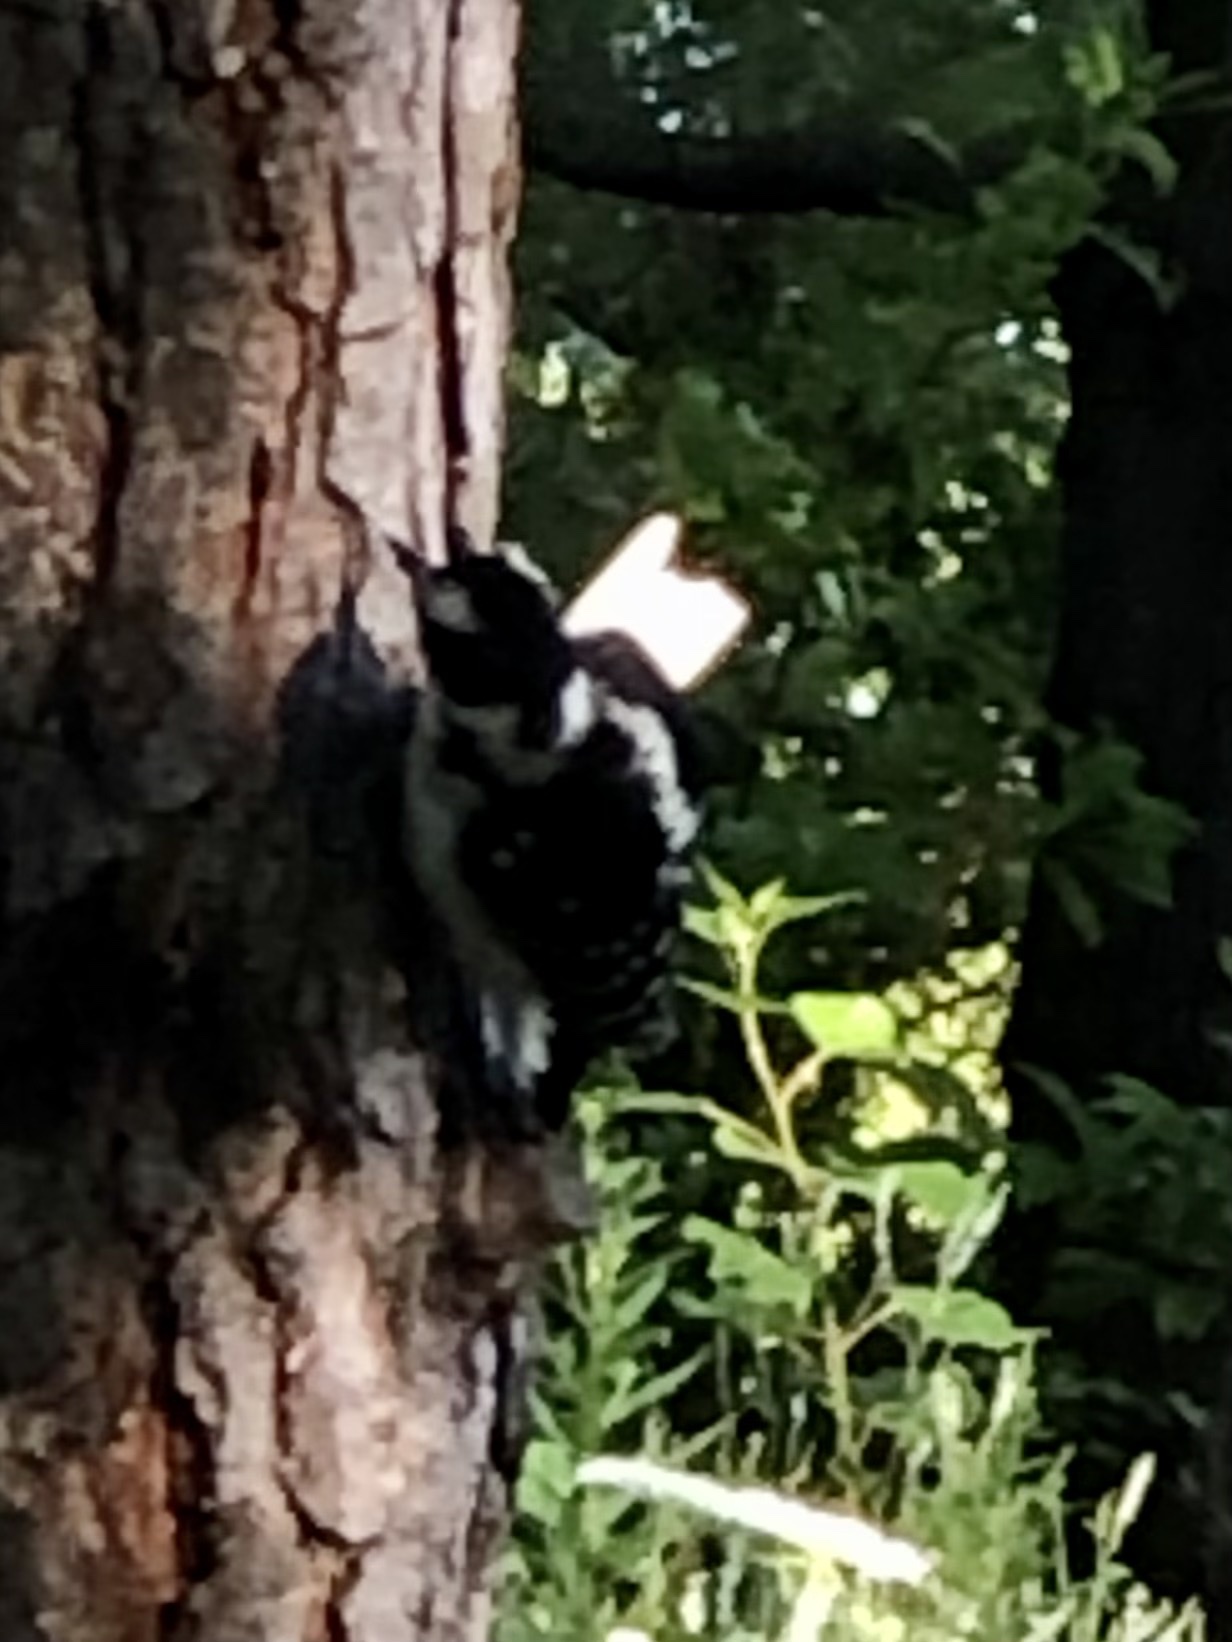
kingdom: Animalia
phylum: Chordata
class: Aves
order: Piciformes
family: Picidae
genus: Leuconotopicus
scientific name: Leuconotopicus villosus
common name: Hairy woodpecker
